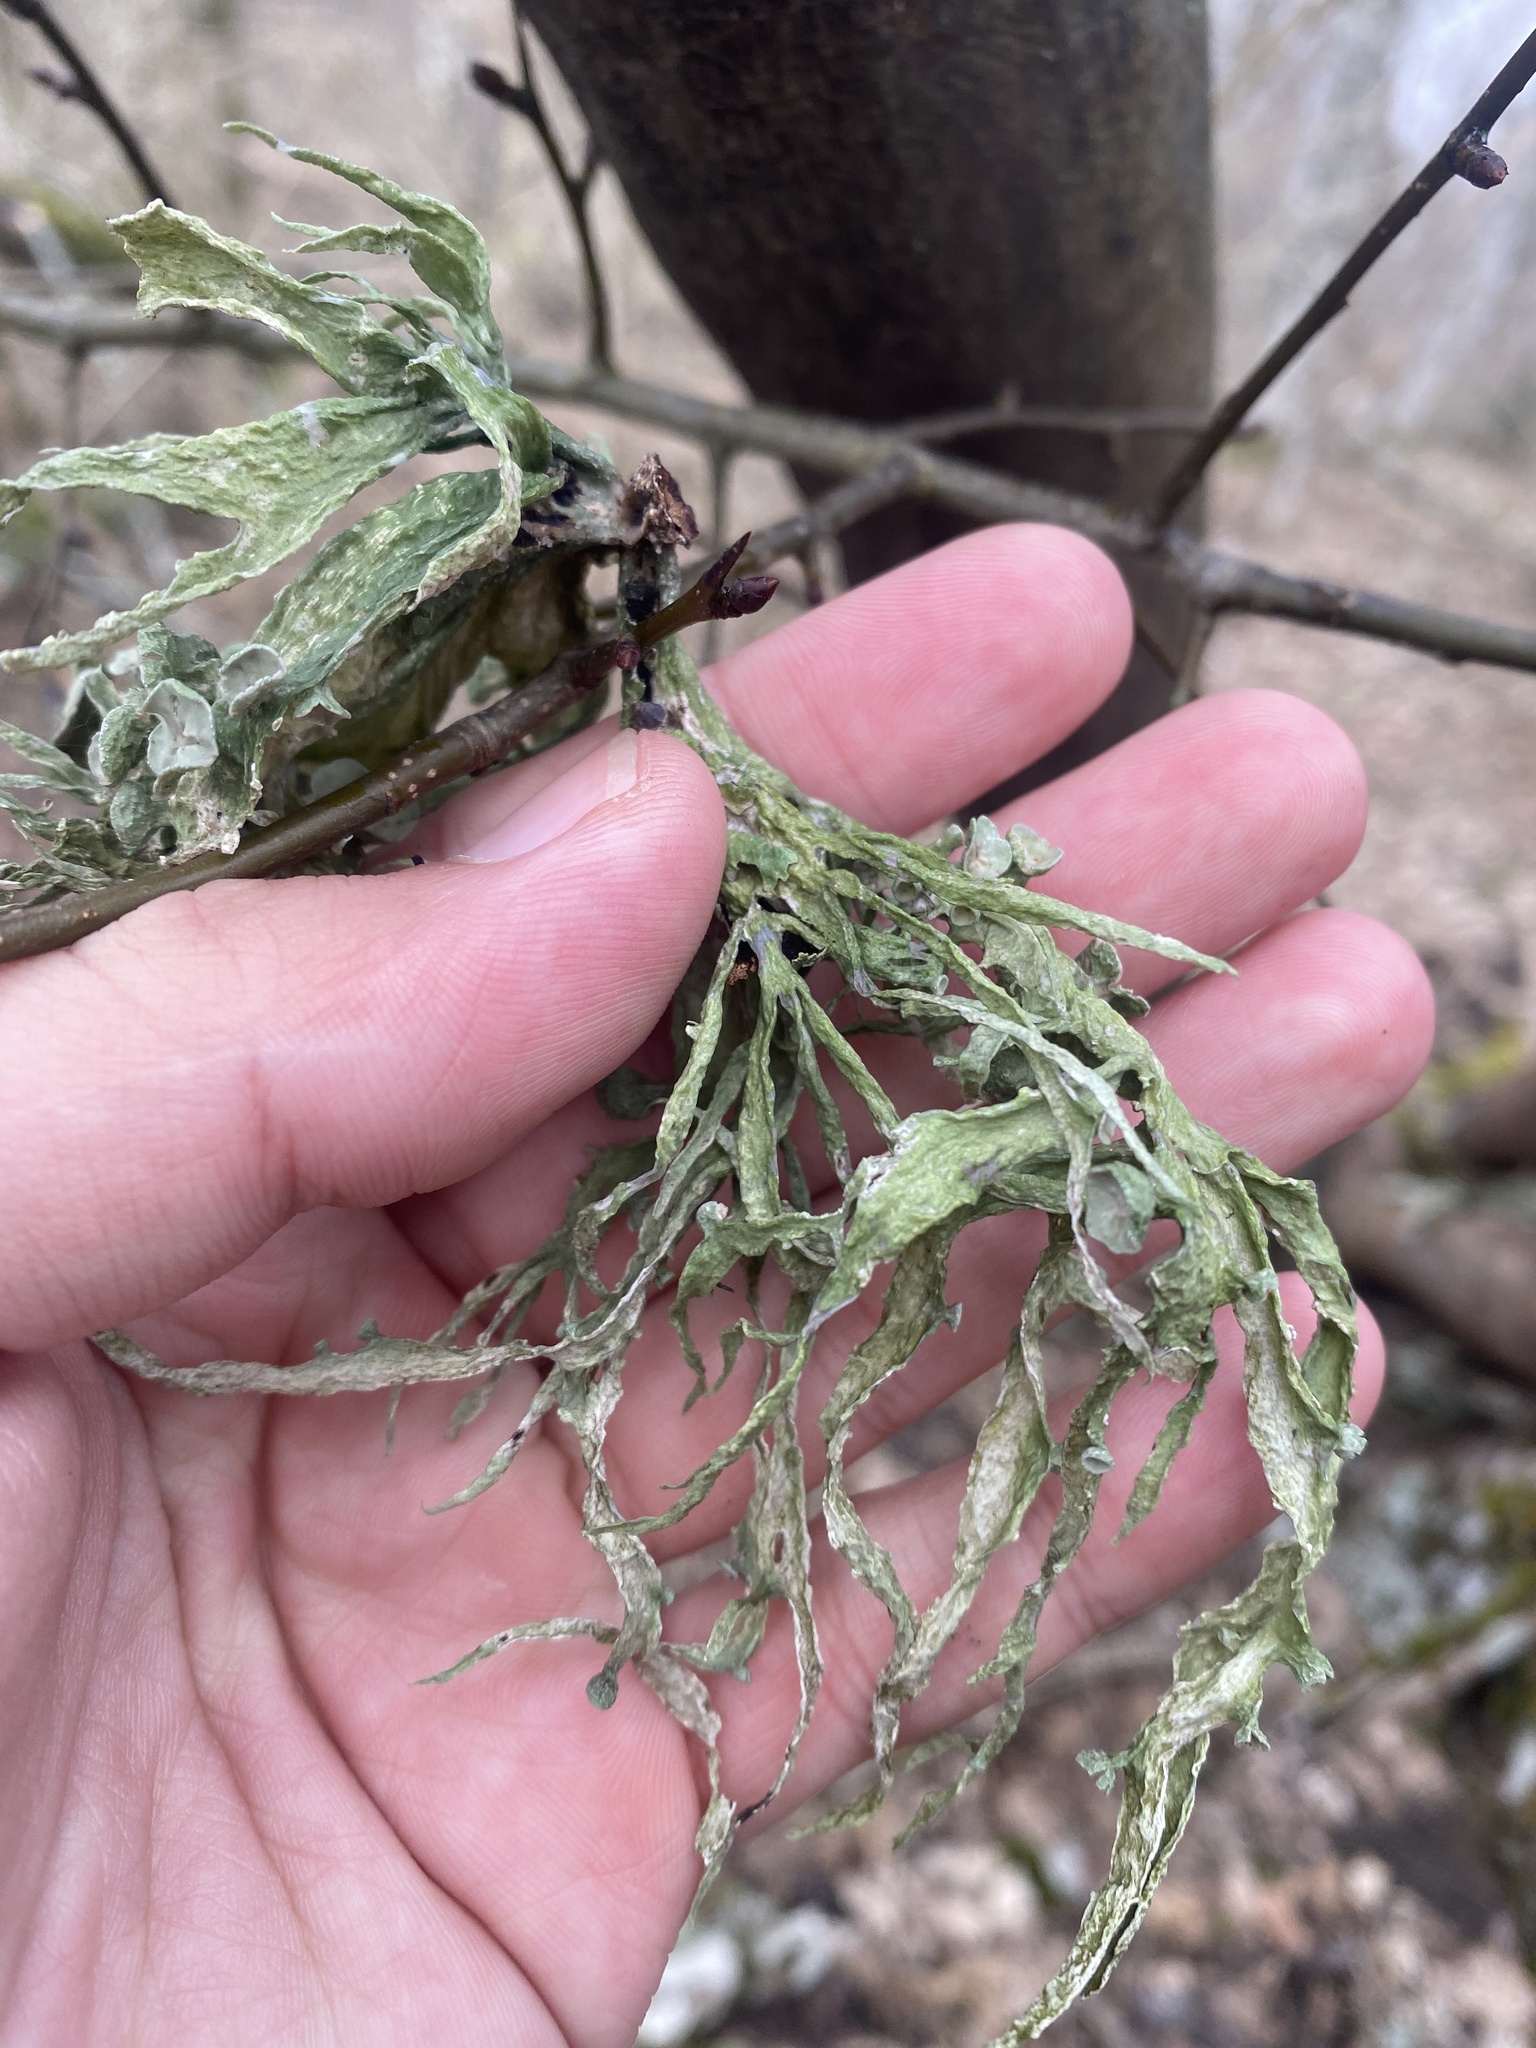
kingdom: Fungi
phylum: Ascomycota
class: Lecanoromycetes
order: Lecanorales
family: Ramalinaceae
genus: Ramalina
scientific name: Ramalina fraxinea
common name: Cartilage lichen
